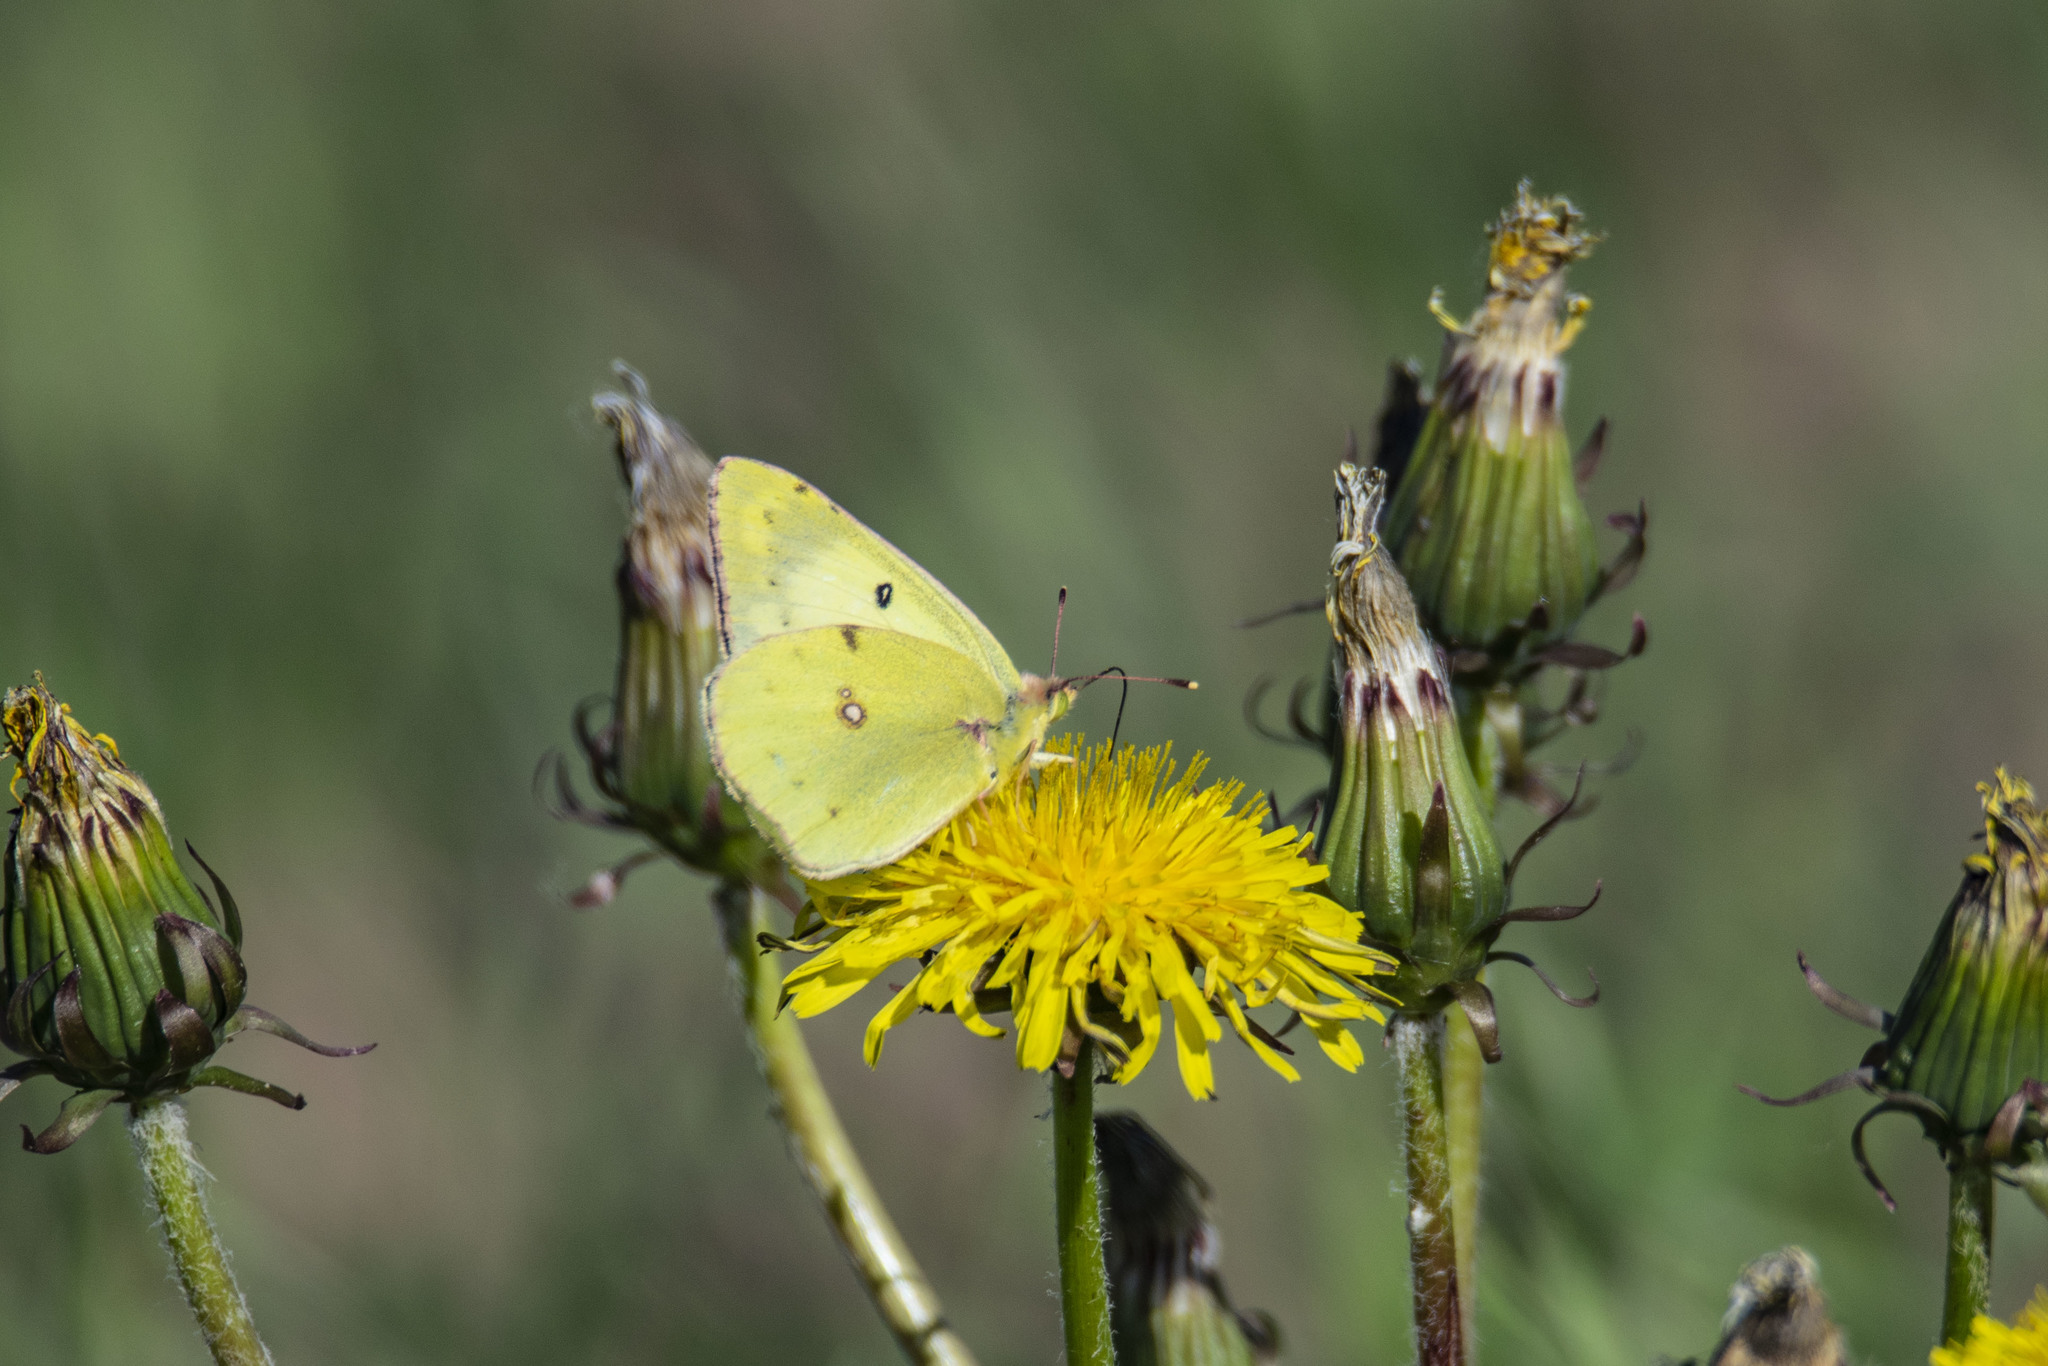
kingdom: Animalia
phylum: Arthropoda
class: Insecta
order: Lepidoptera
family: Pieridae
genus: Colias
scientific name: Colias hyale
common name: Pale clouded yellow
